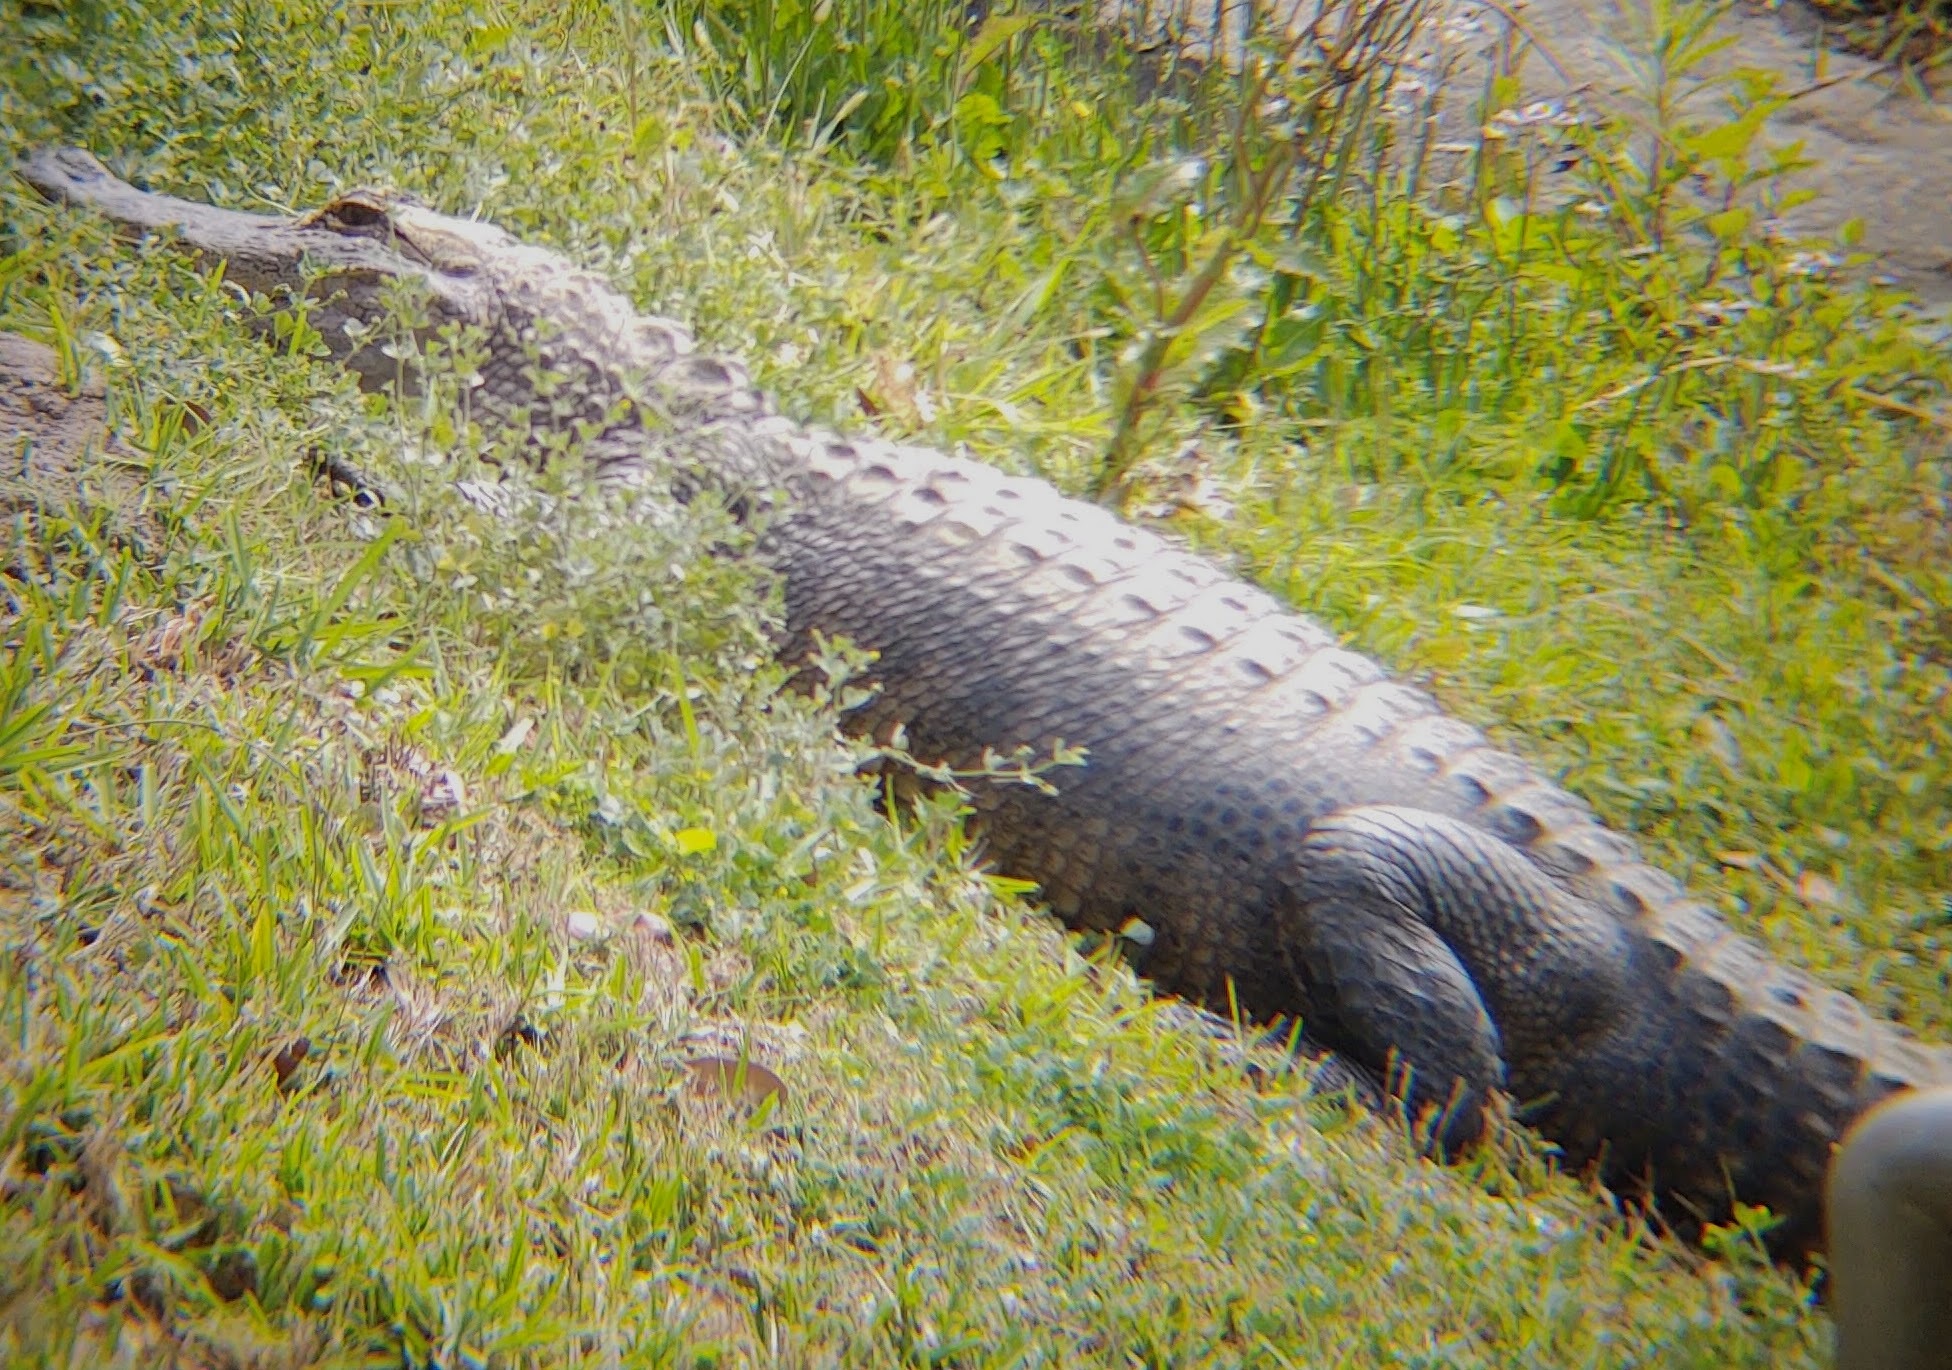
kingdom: Animalia
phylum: Chordata
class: Crocodylia
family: Alligatoridae
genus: Alligator
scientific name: Alligator mississippiensis
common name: American alligator
